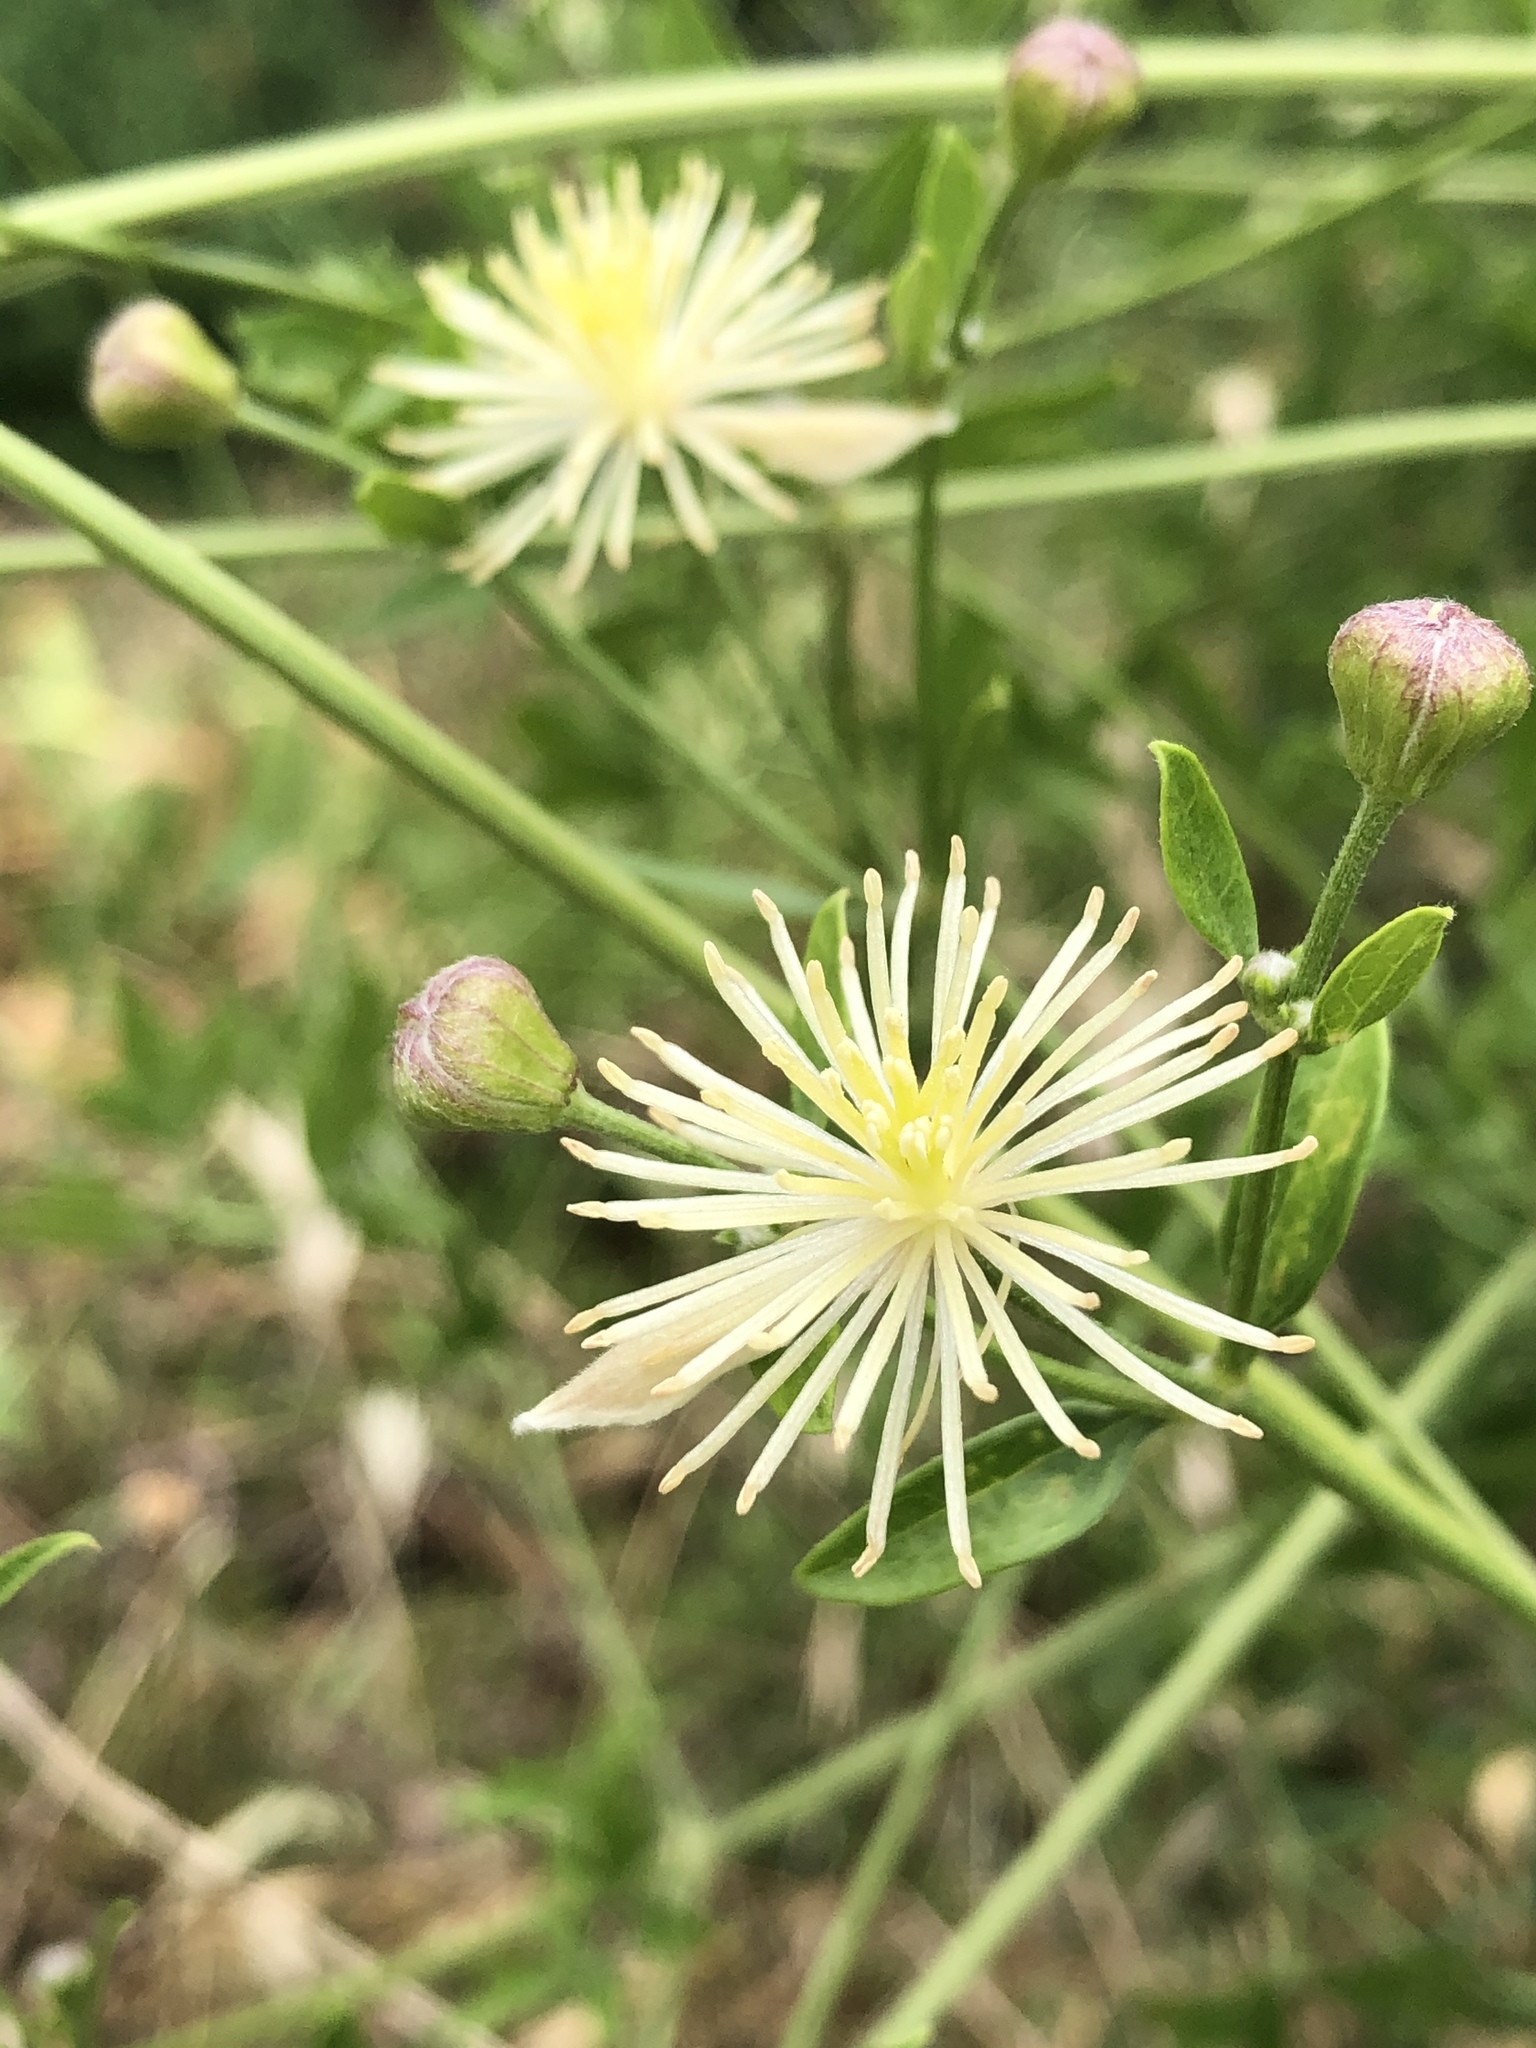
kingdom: Plantae
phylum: Tracheophyta
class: Magnoliopsida
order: Ranunculales
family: Ranunculaceae
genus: Clematis
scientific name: Clematis drummondii
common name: Texas virgin's bower
